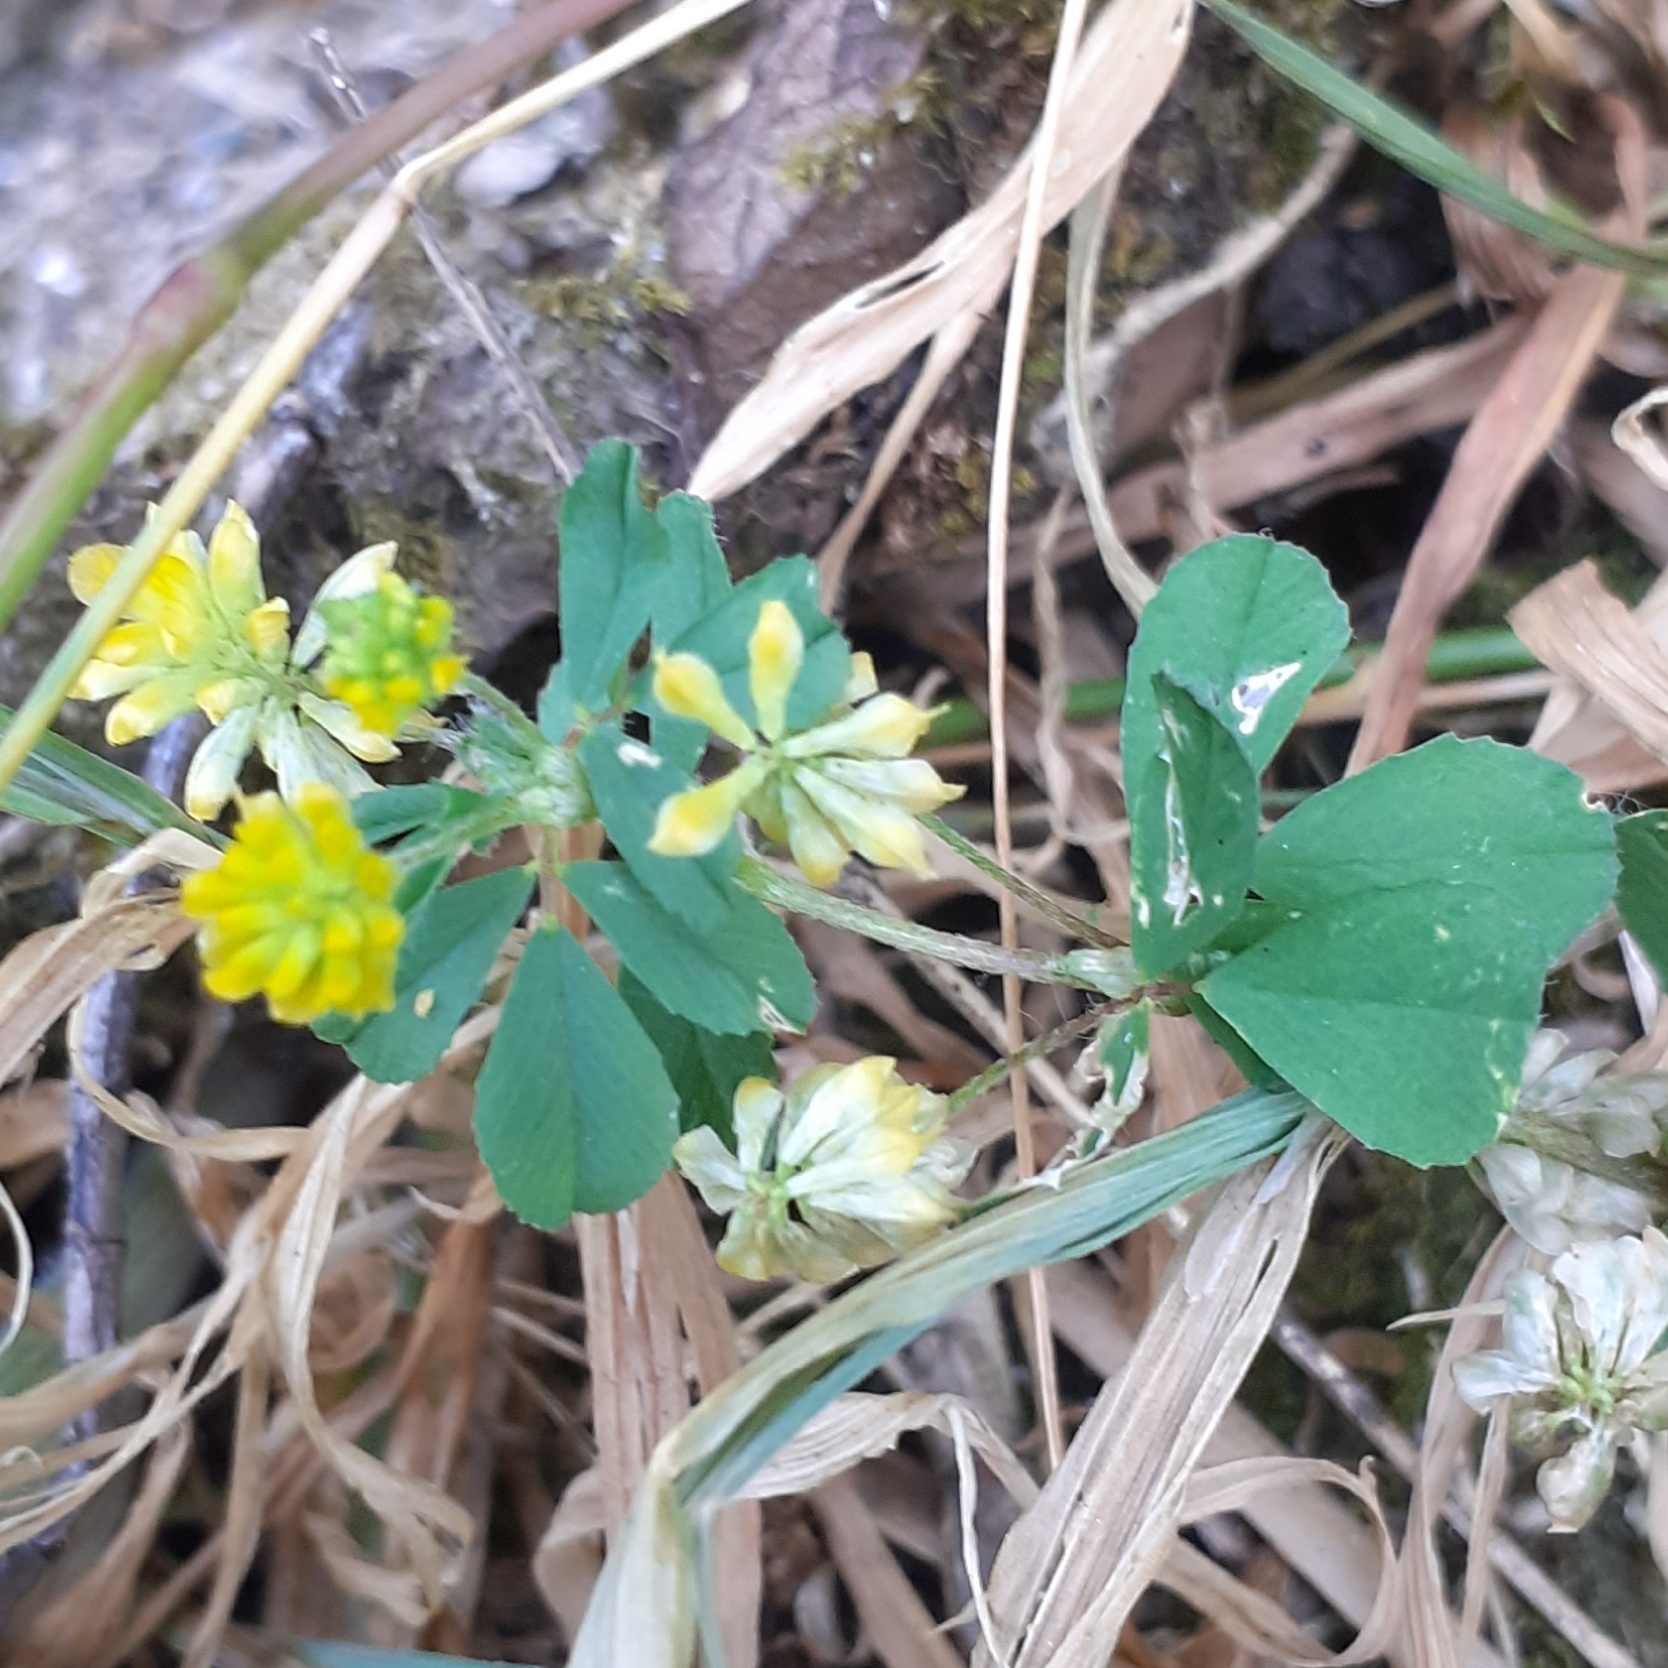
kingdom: Plantae
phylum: Tracheophyta
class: Magnoliopsida
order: Fabales
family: Fabaceae
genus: Trifolium
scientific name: Trifolium dubium
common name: Suckling clover
